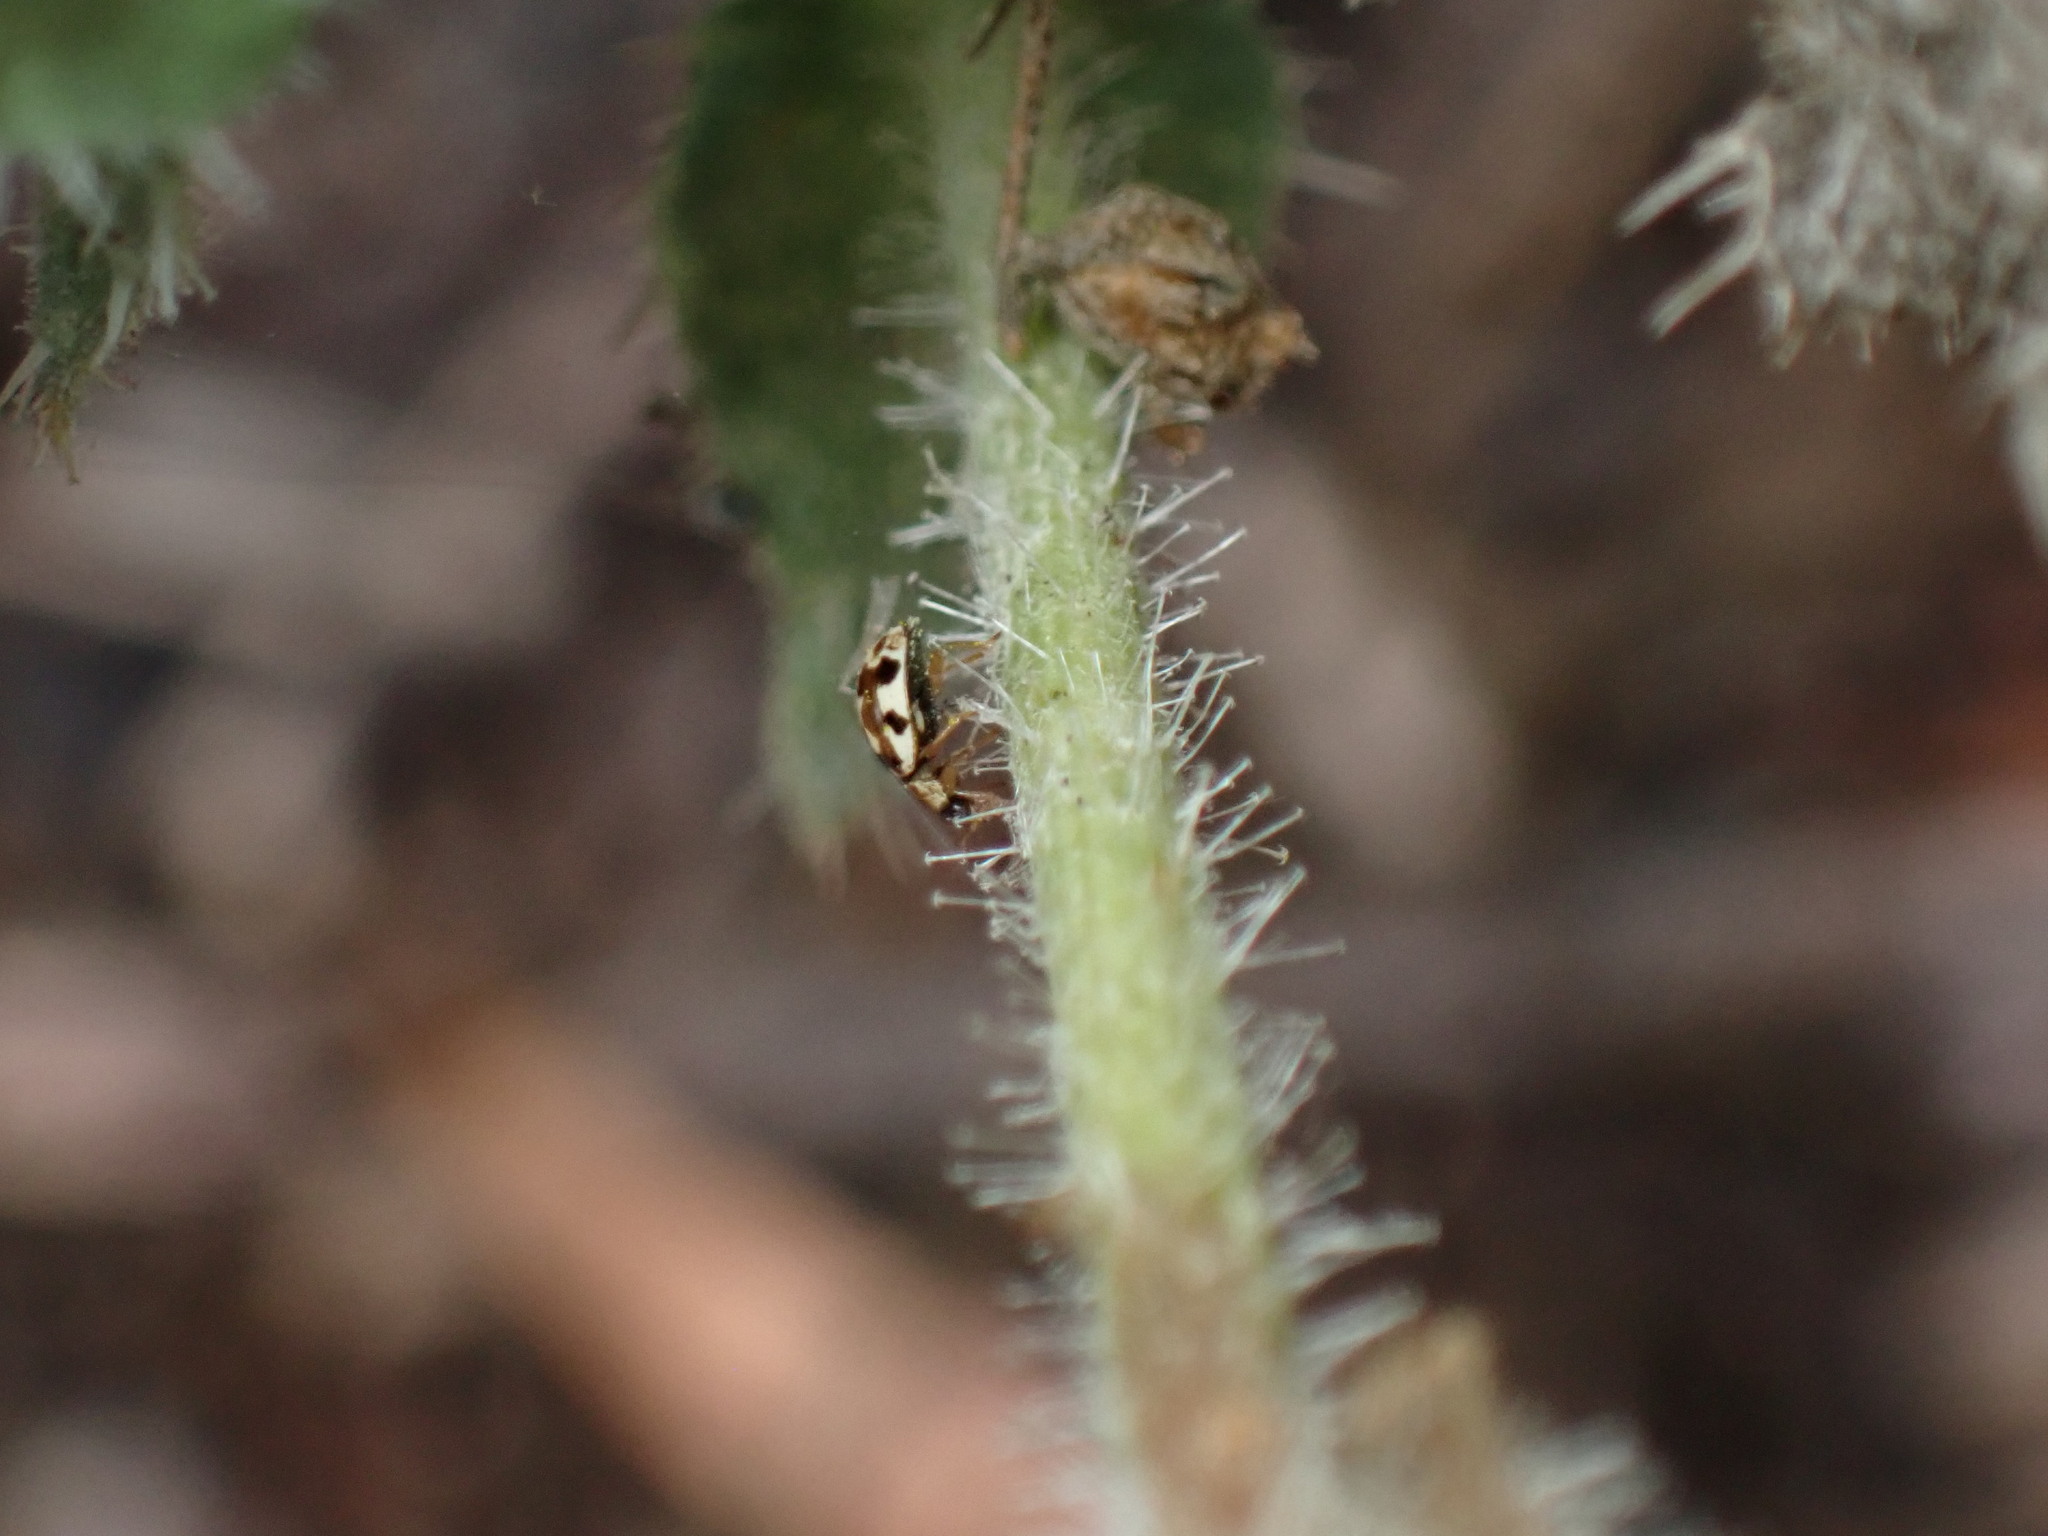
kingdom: Animalia
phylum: Arthropoda
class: Insecta
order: Coleoptera
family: Coccinellidae
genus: Psyllobora
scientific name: Psyllobora vigintimaculata
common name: Ladybird beetle
